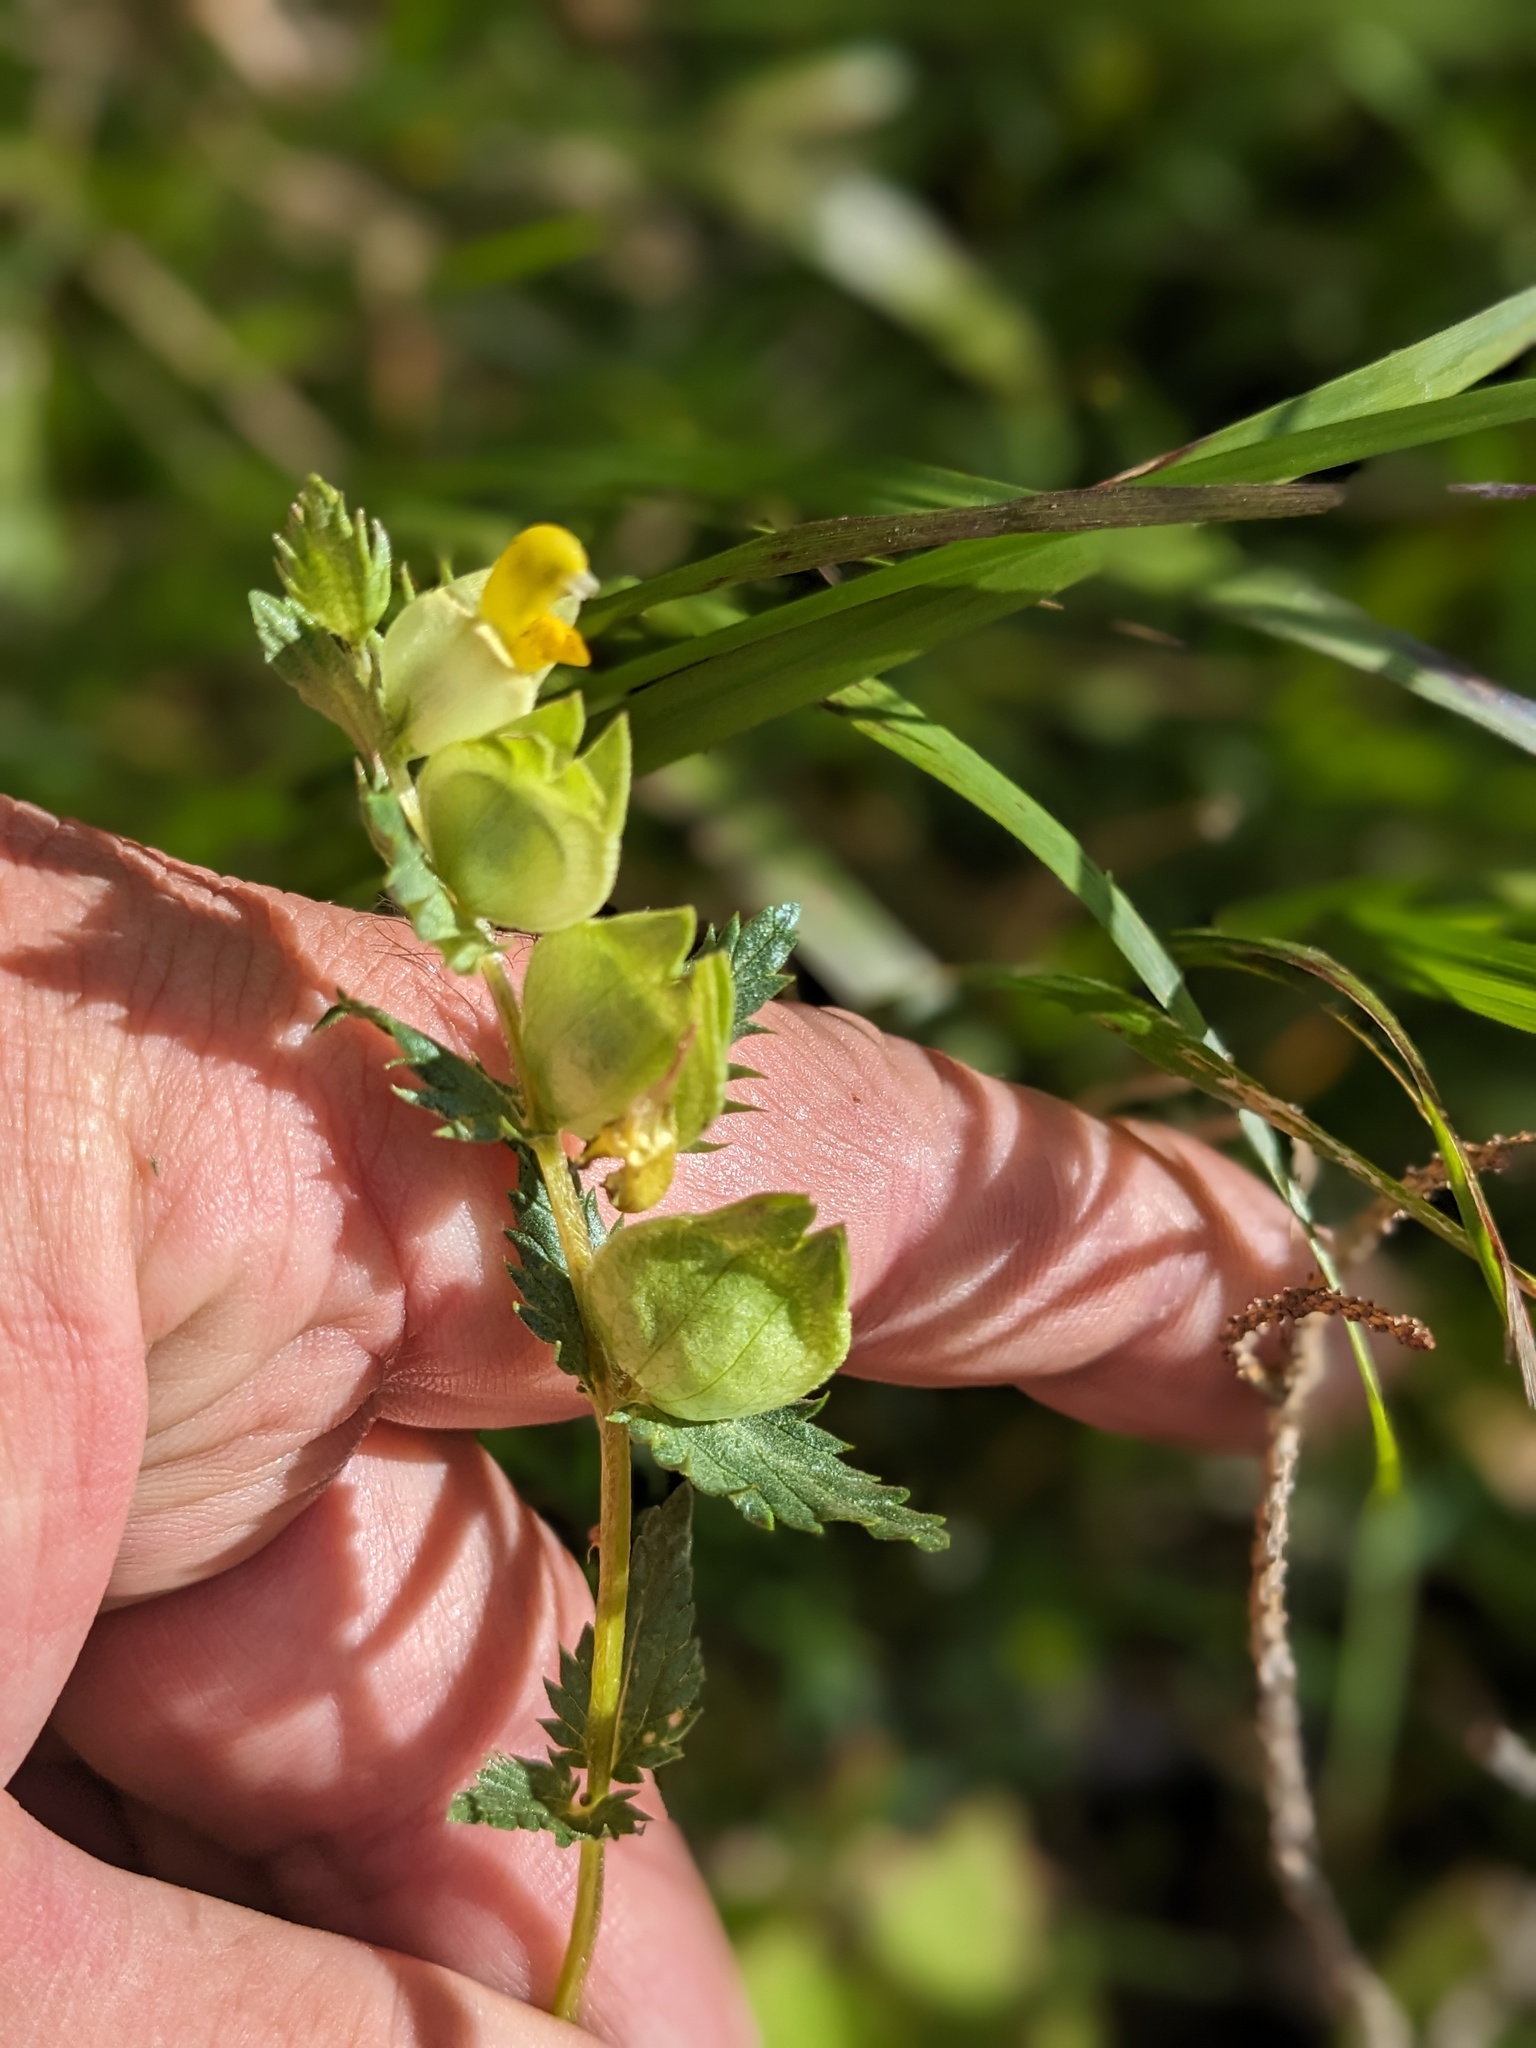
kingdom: Plantae
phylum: Tracheophyta
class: Magnoliopsida
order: Lamiales
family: Orobanchaceae
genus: Rhinanthus
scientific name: Rhinanthus minor
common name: Yellow-rattle
